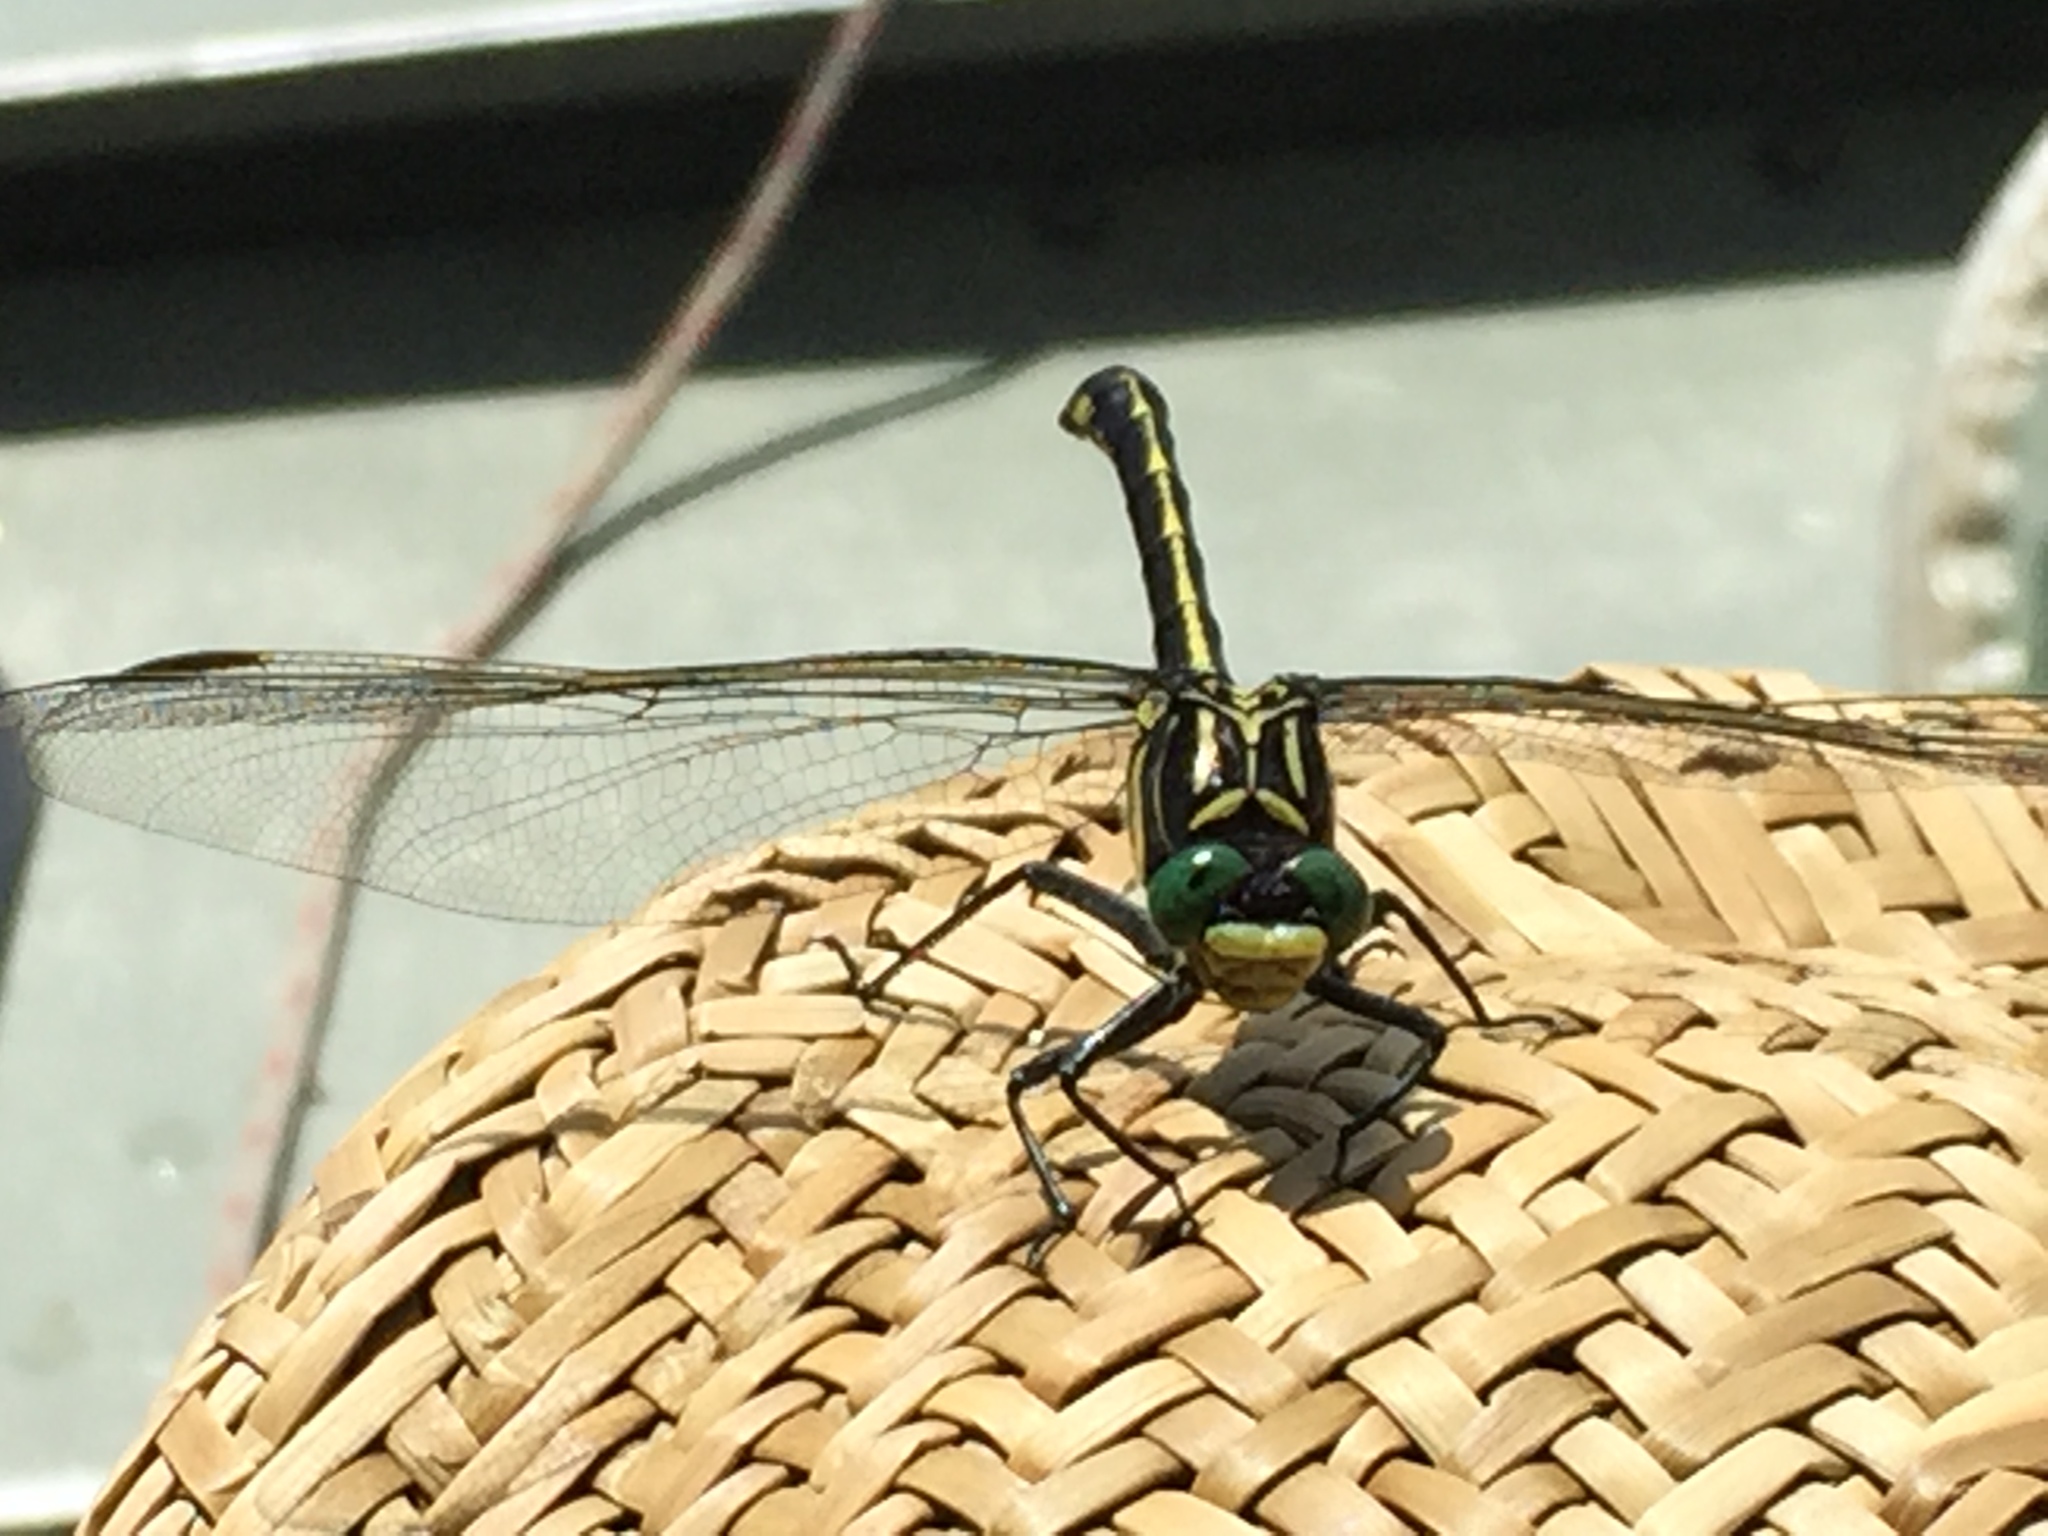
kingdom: Animalia
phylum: Arthropoda
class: Insecta
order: Odonata
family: Gomphidae
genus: Hagenius
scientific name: Hagenius brevistylus
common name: Dragonhunter
